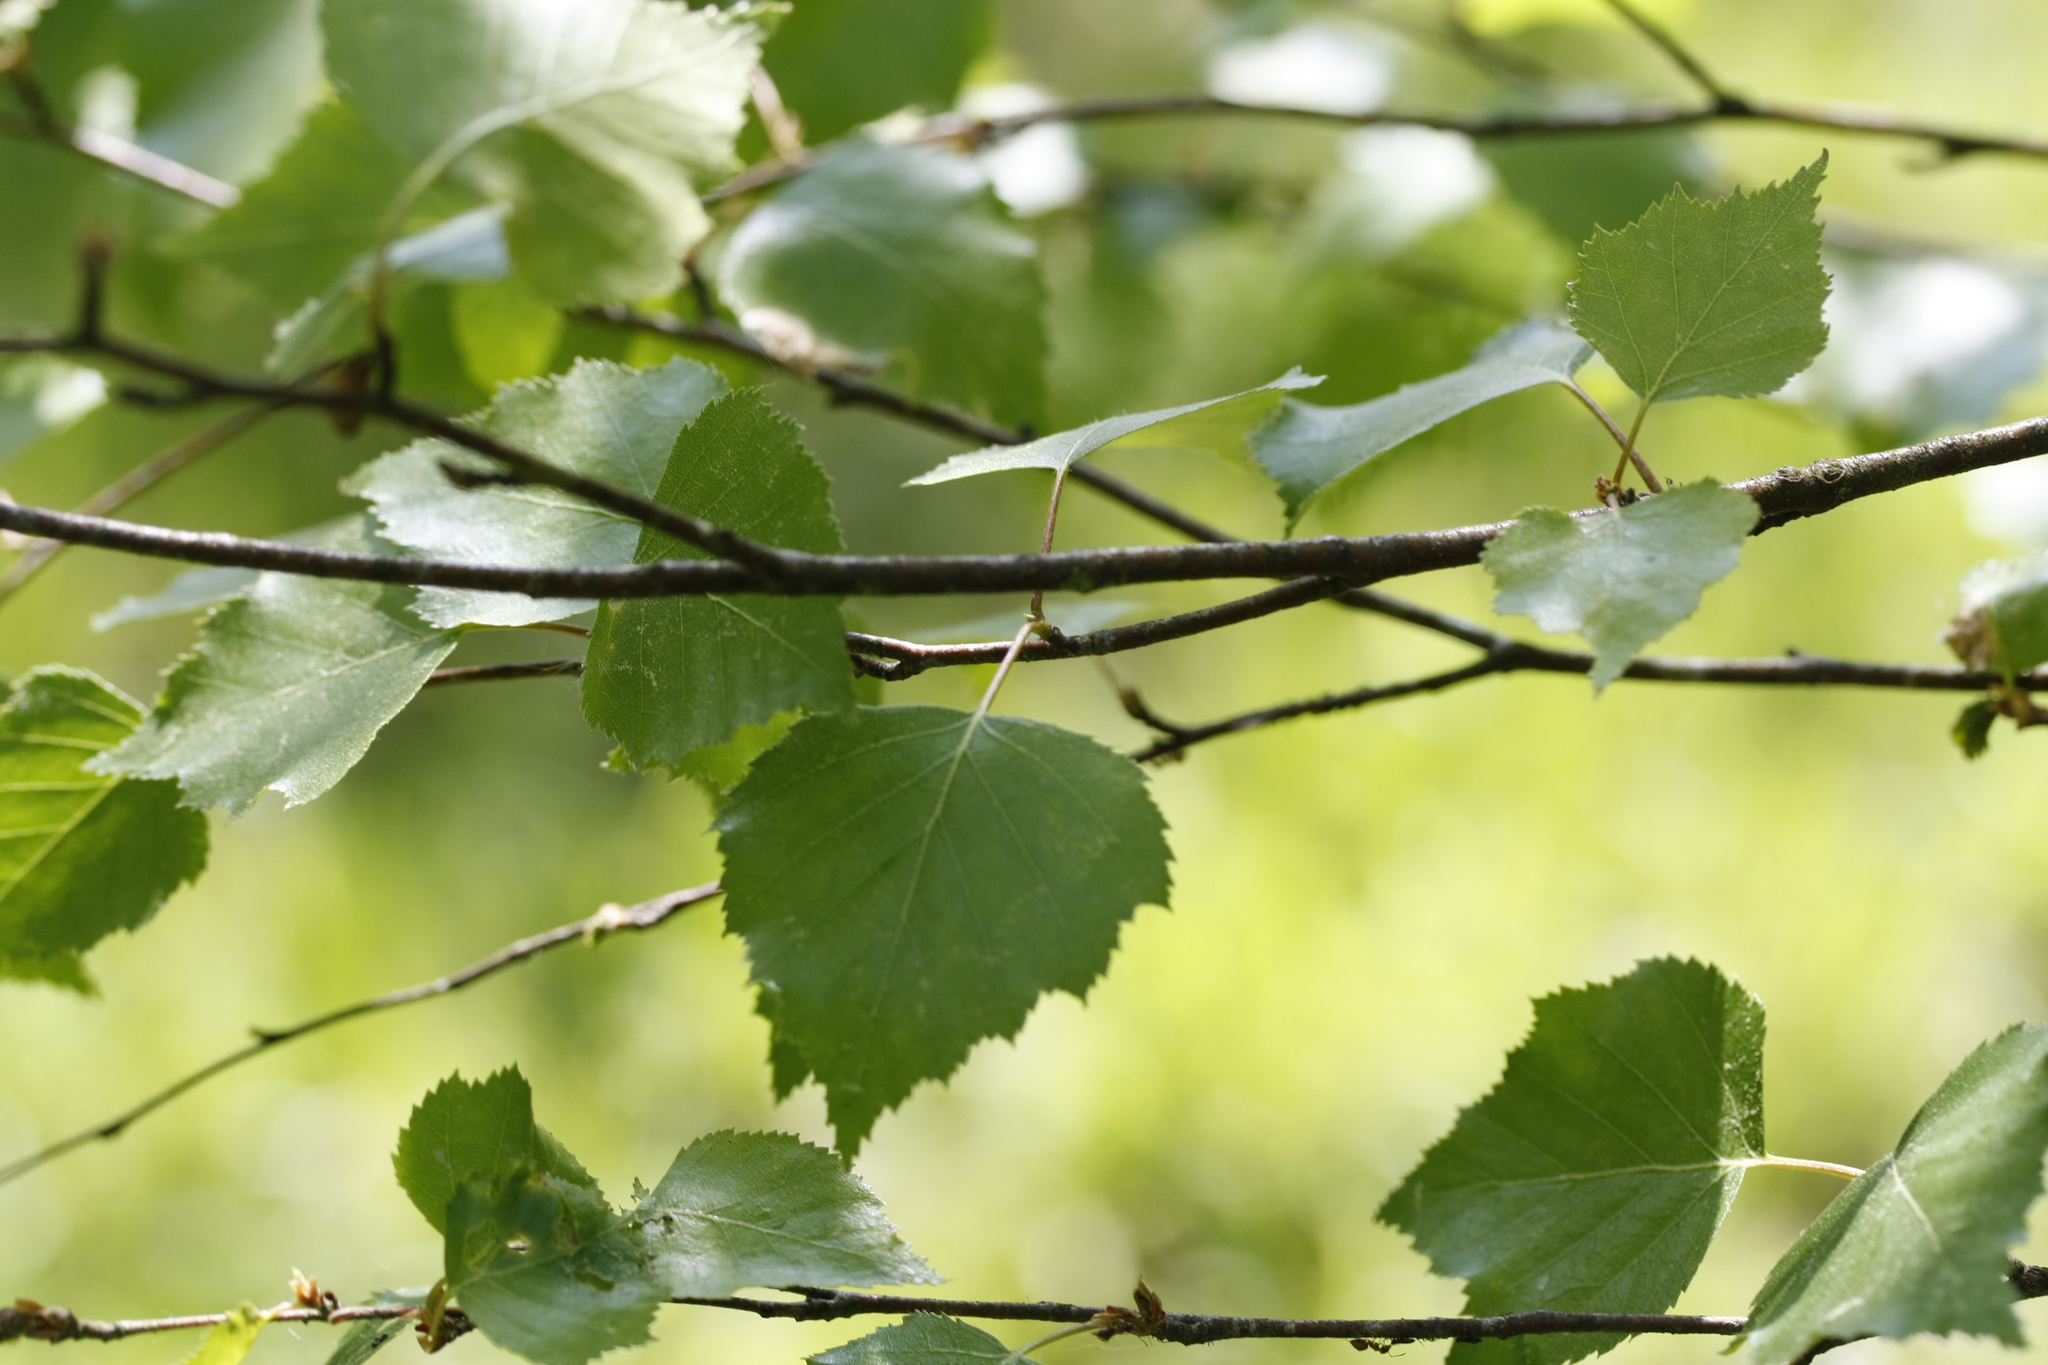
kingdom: Plantae
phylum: Tracheophyta
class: Magnoliopsida
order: Fagales
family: Betulaceae
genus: Betula
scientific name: Betula pendula
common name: Silver birch
